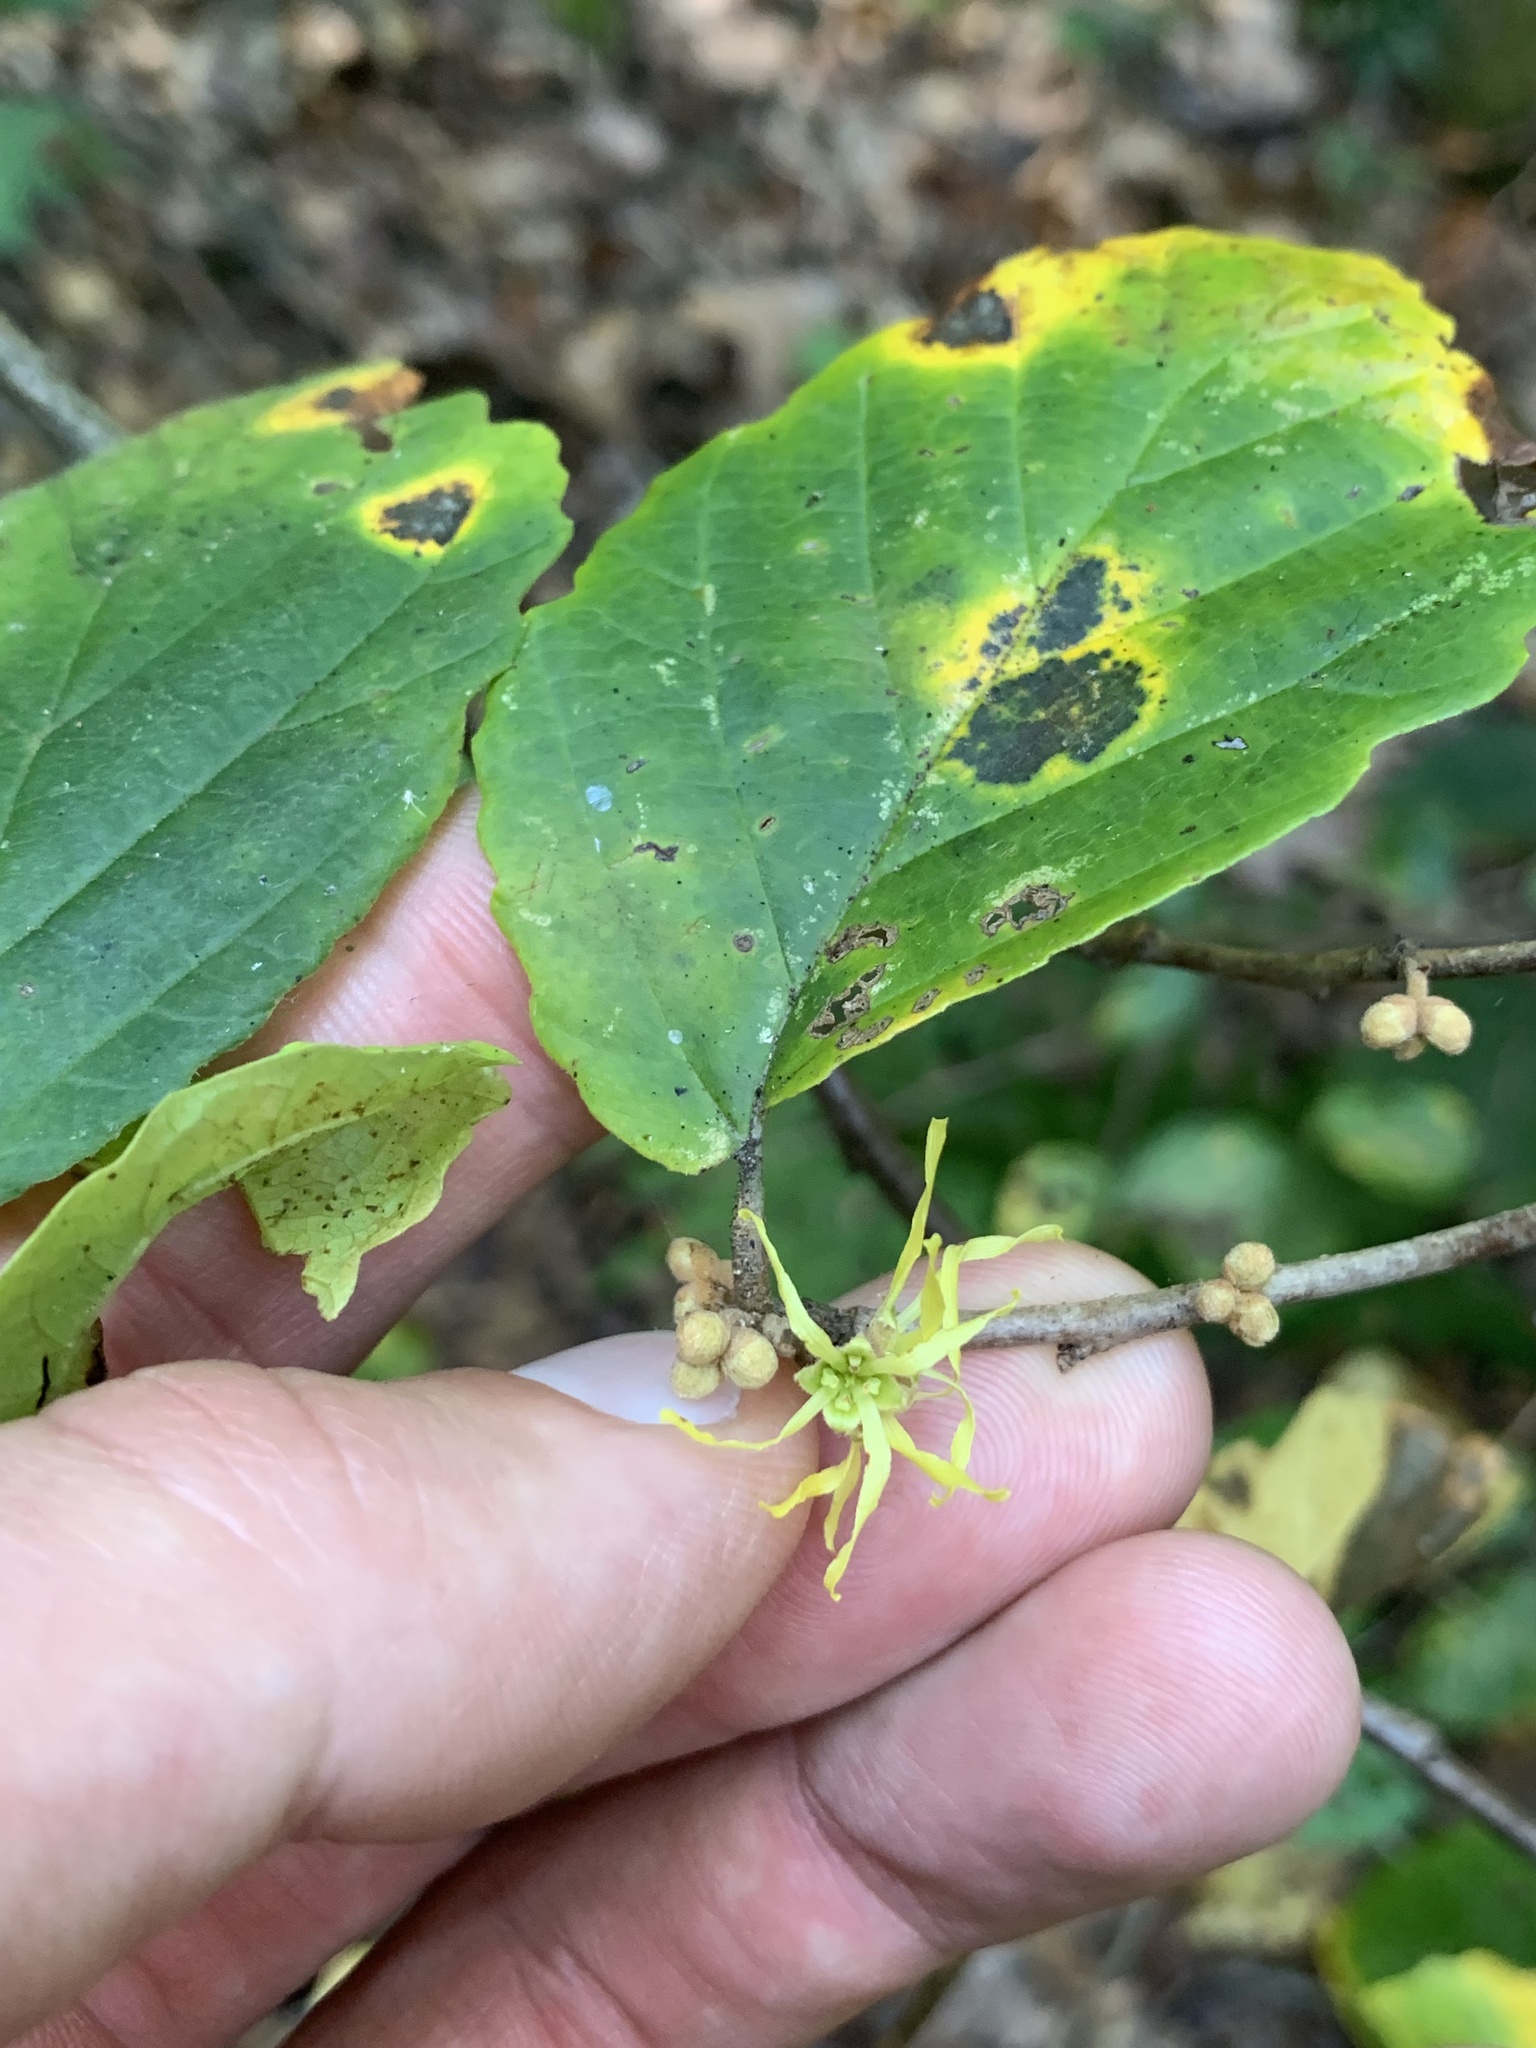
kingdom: Plantae
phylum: Tracheophyta
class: Magnoliopsida
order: Saxifragales
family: Hamamelidaceae
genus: Hamamelis
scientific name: Hamamelis virginiana
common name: Witch-hazel
